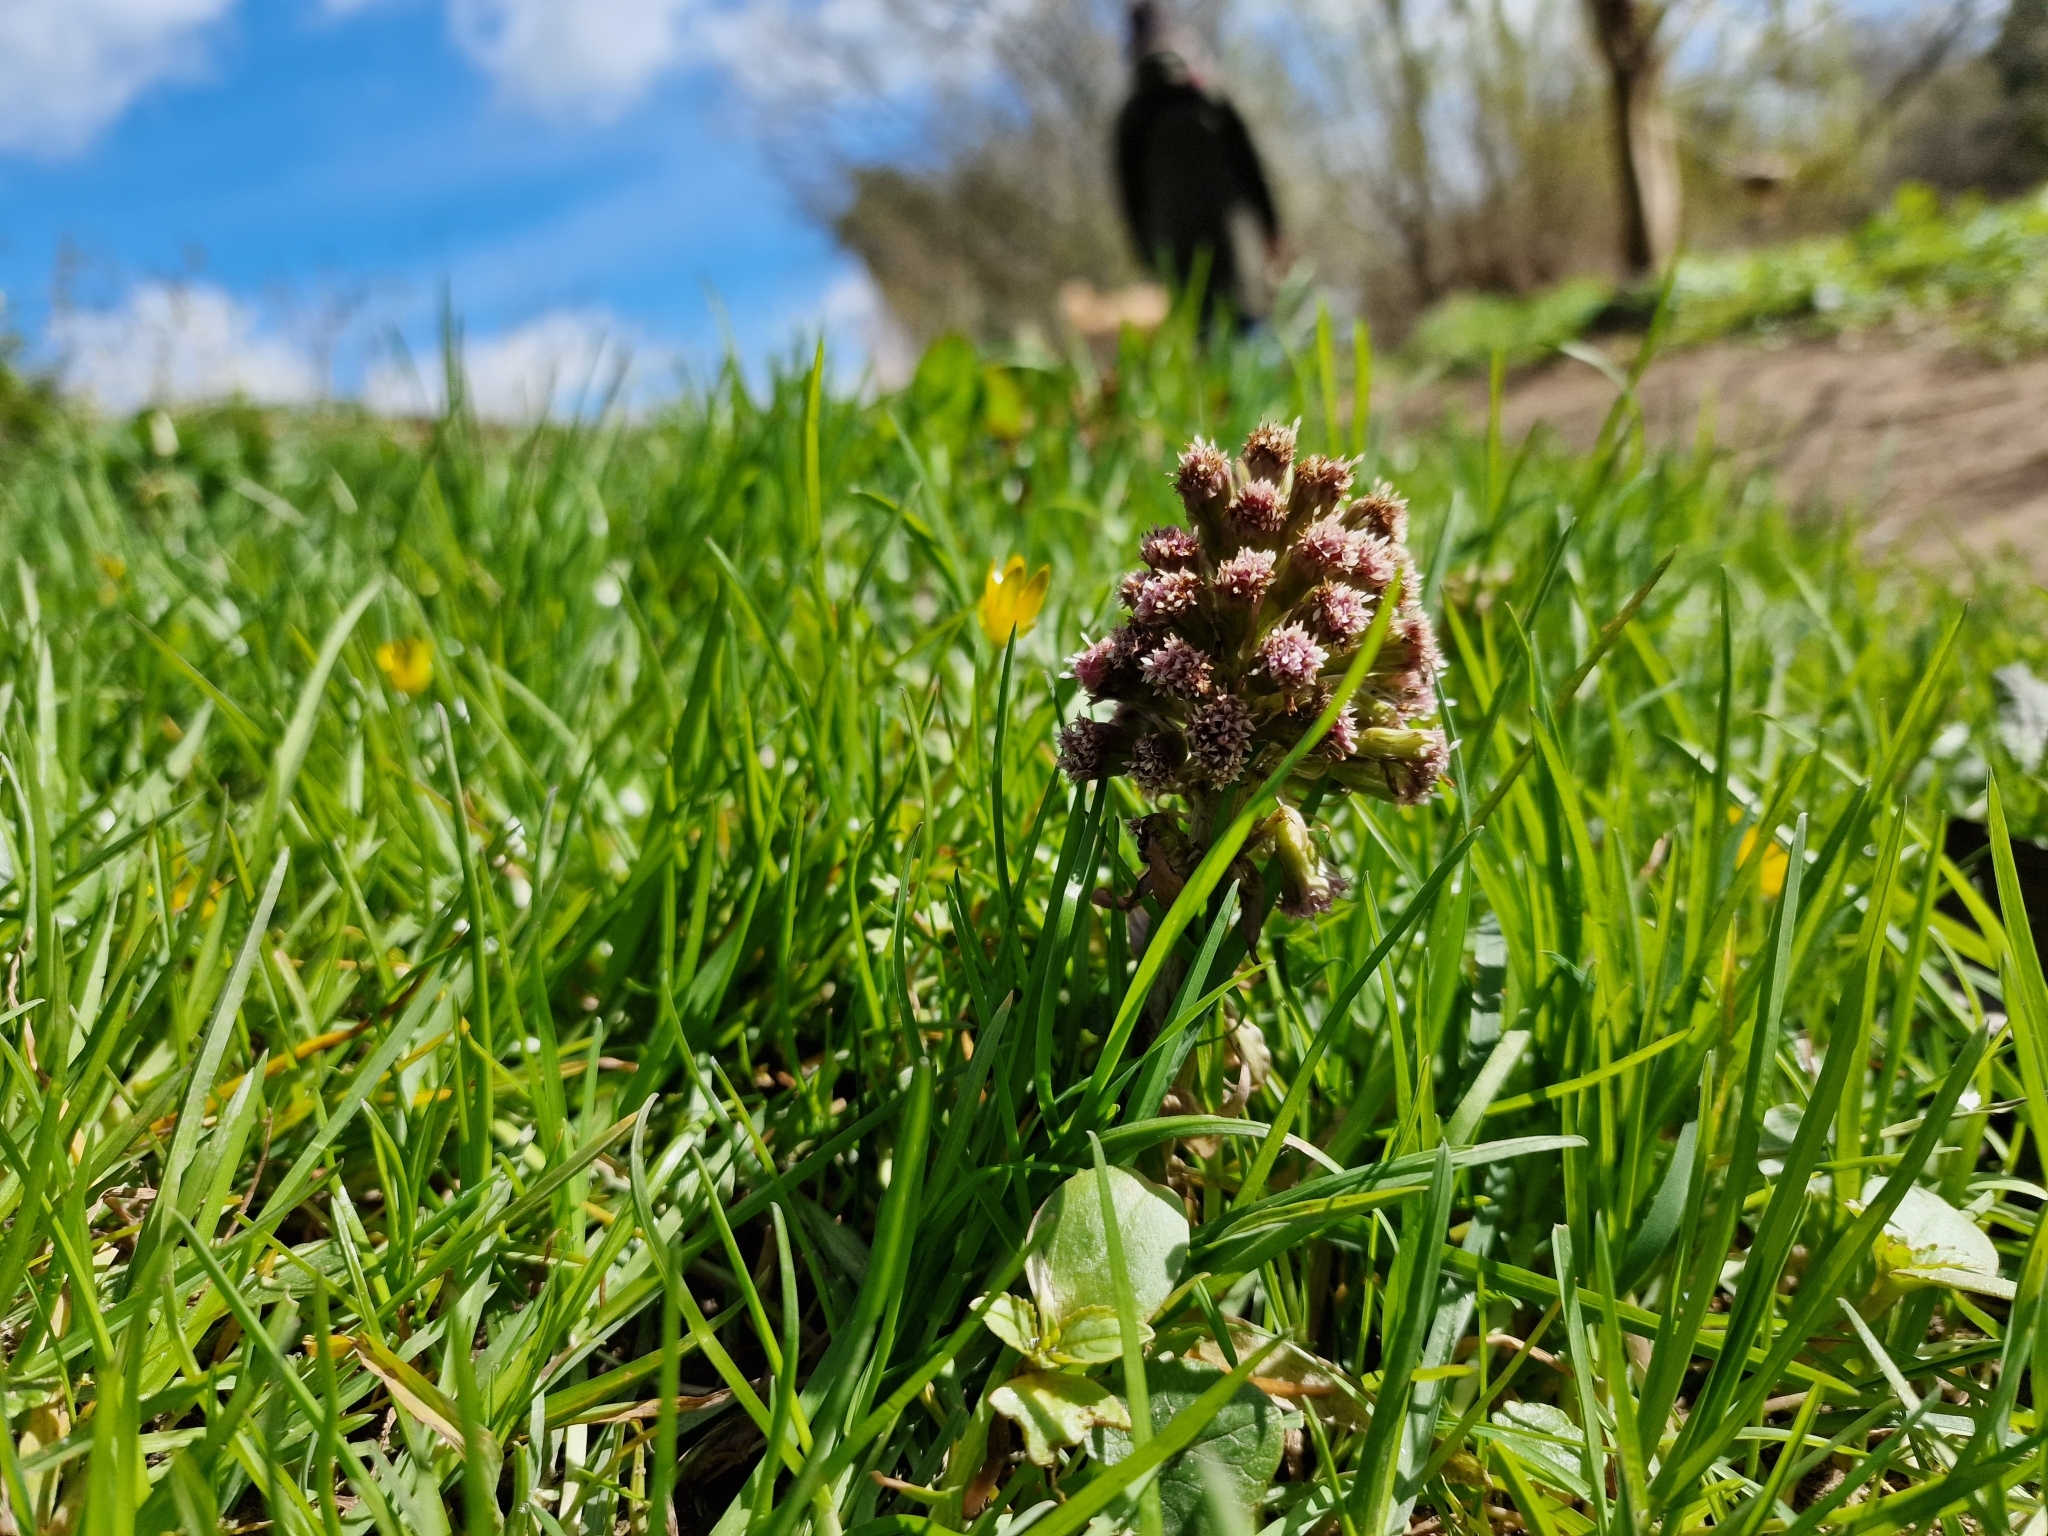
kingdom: Plantae
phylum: Tracheophyta
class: Magnoliopsida
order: Asterales
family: Asteraceae
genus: Petasites
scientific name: Petasites hybridus
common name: Butterbur
